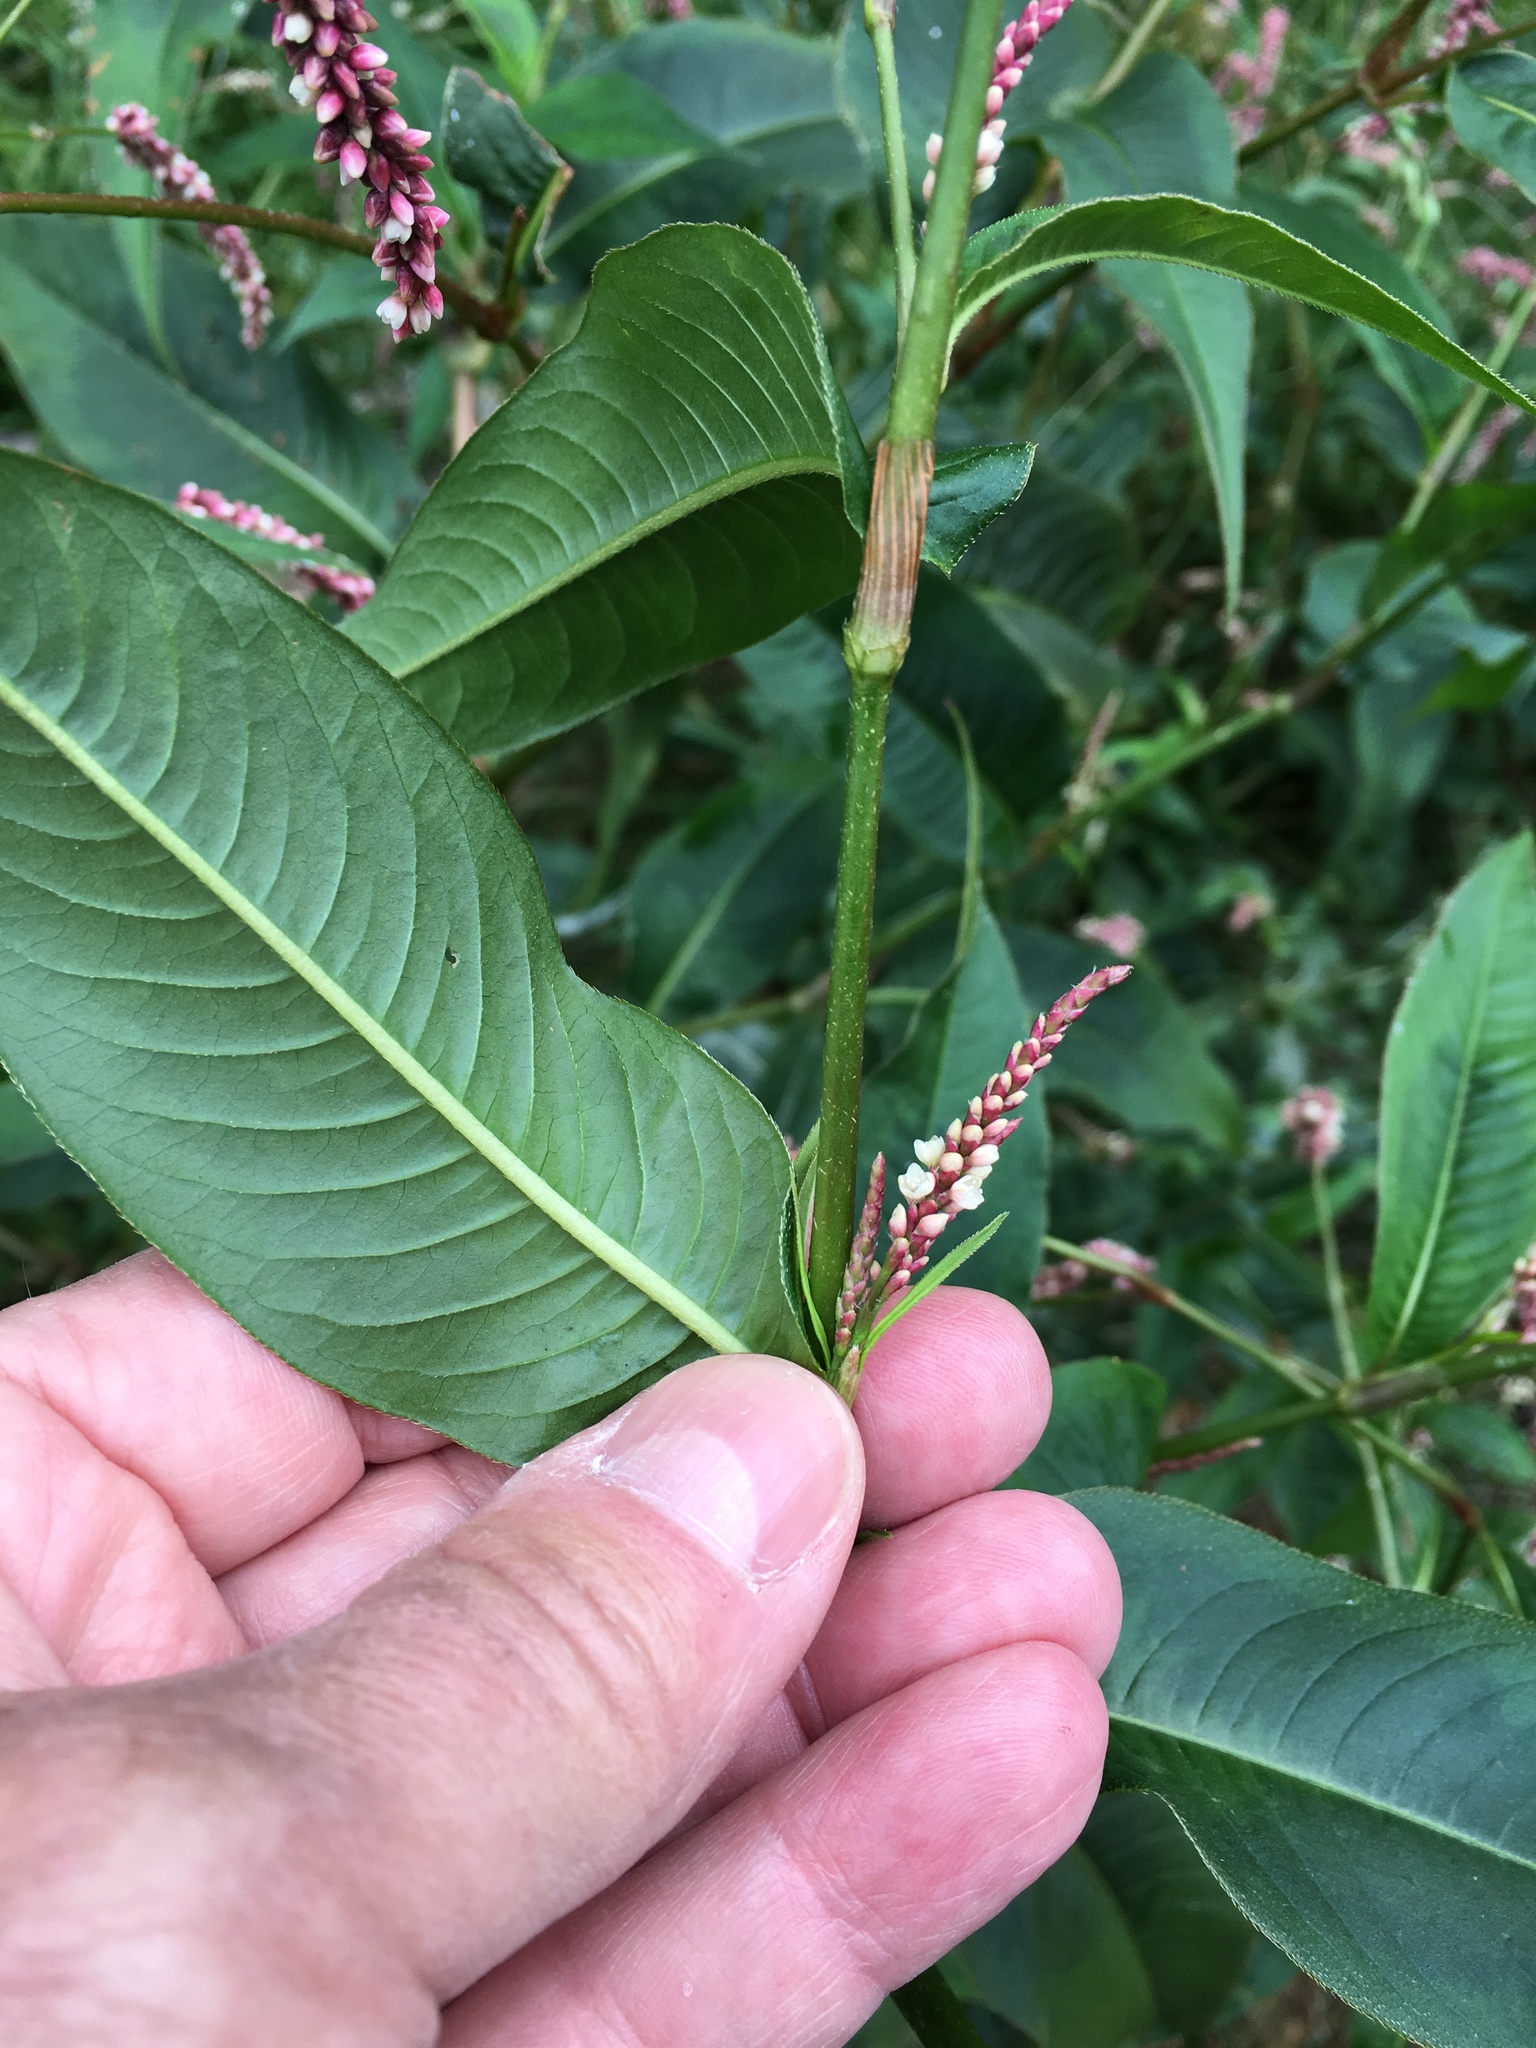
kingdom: Plantae
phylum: Tracheophyta
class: Magnoliopsida
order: Caryophyllales
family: Polygonaceae
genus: Persicaria
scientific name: Persicaria extremiorientalis
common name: Far-eastern smartweed
